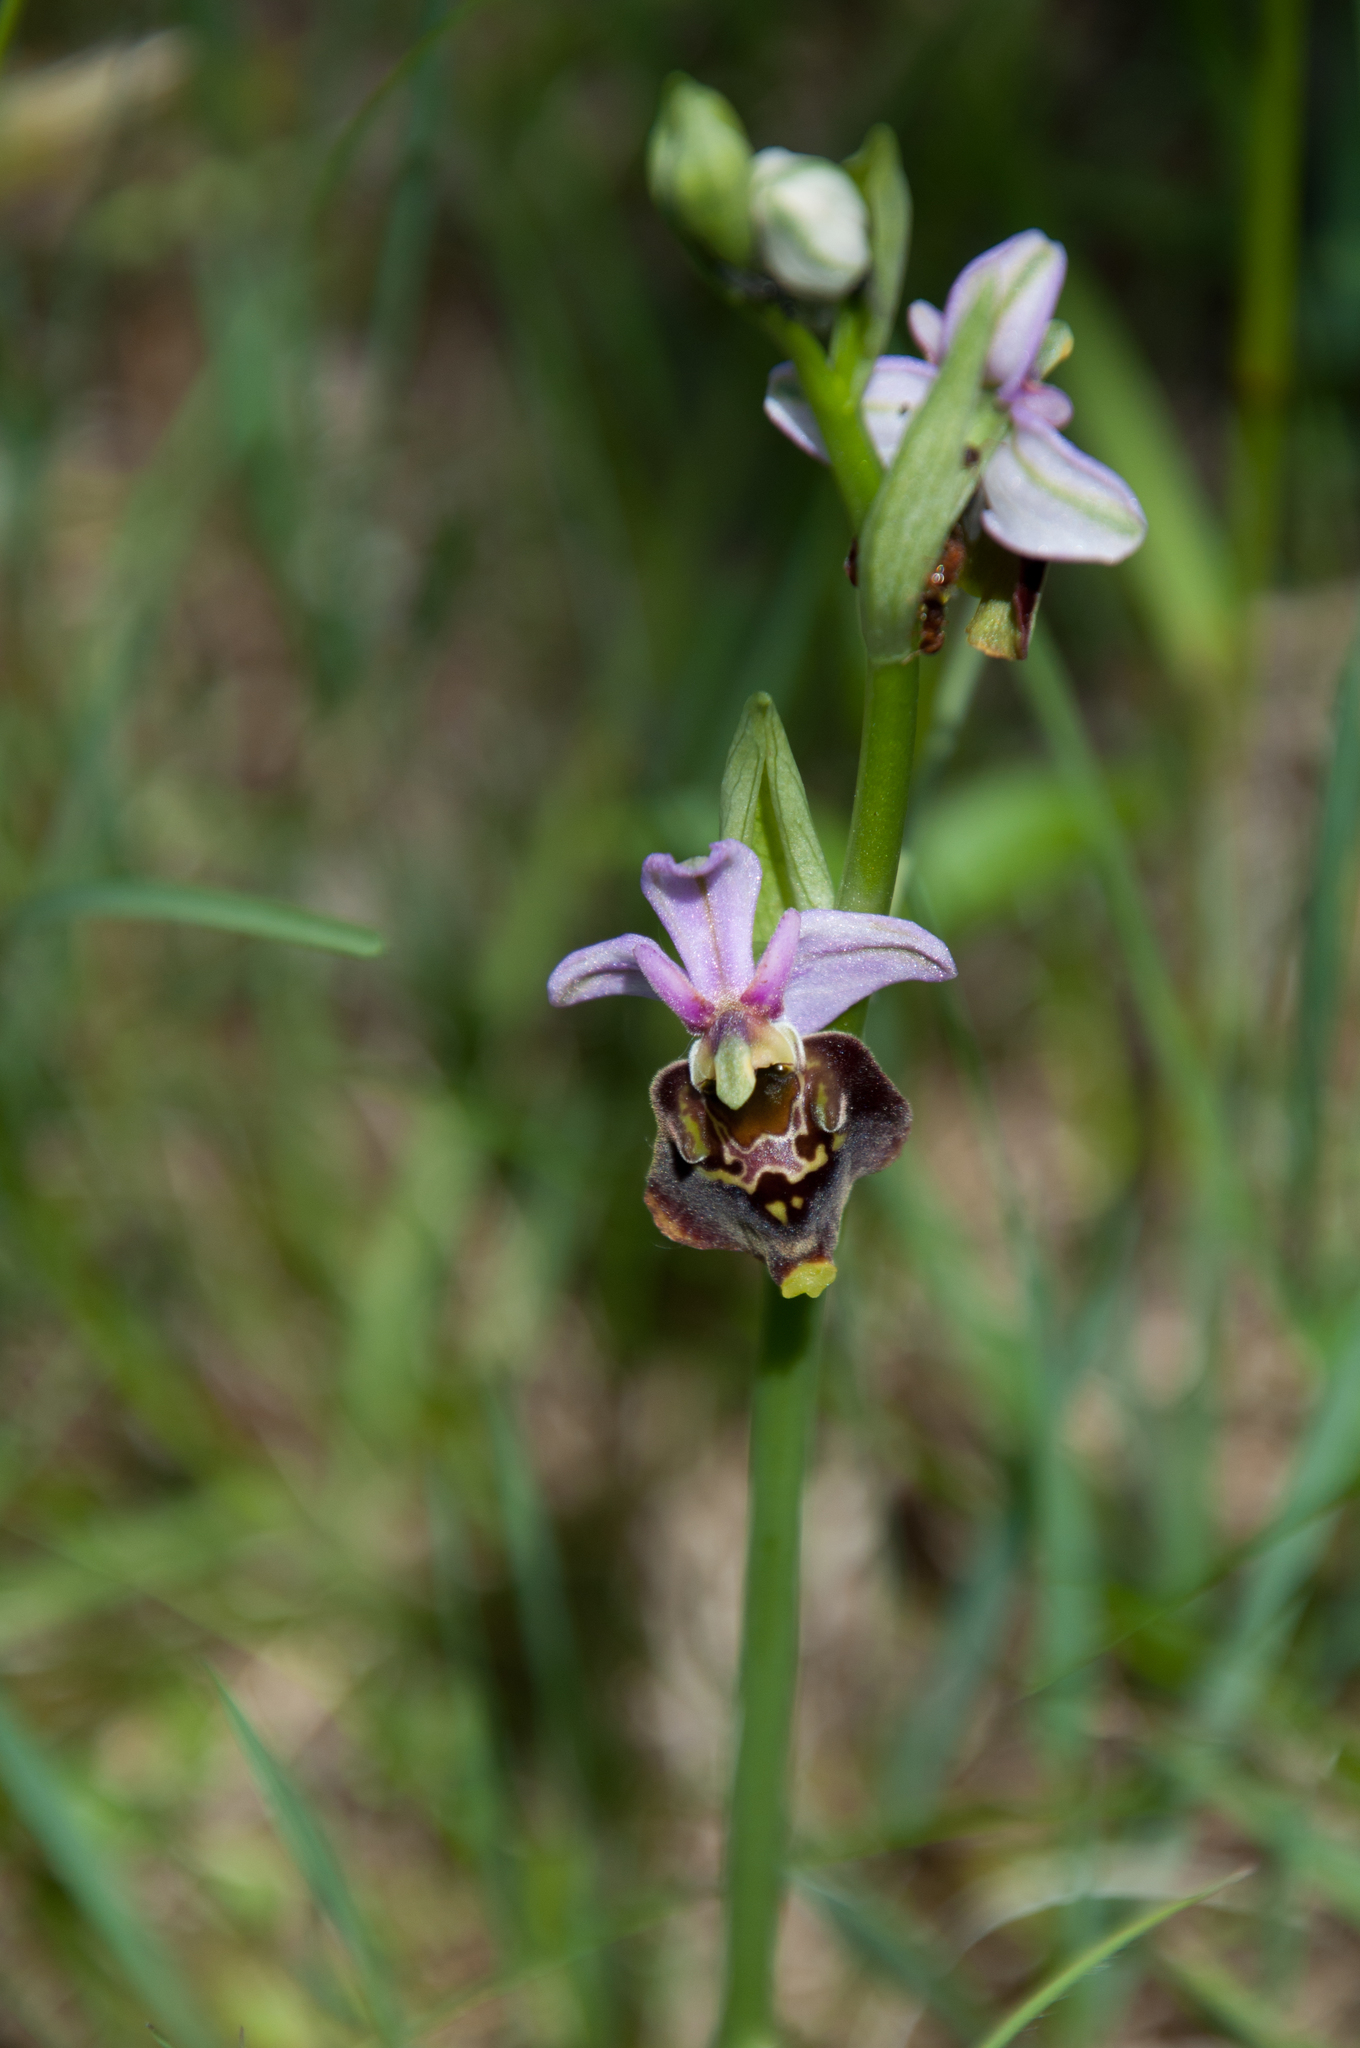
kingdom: Plantae
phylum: Tracheophyta
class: Liliopsida
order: Asparagales
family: Orchidaceae
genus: Ophrys
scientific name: Ophrys holosericea
